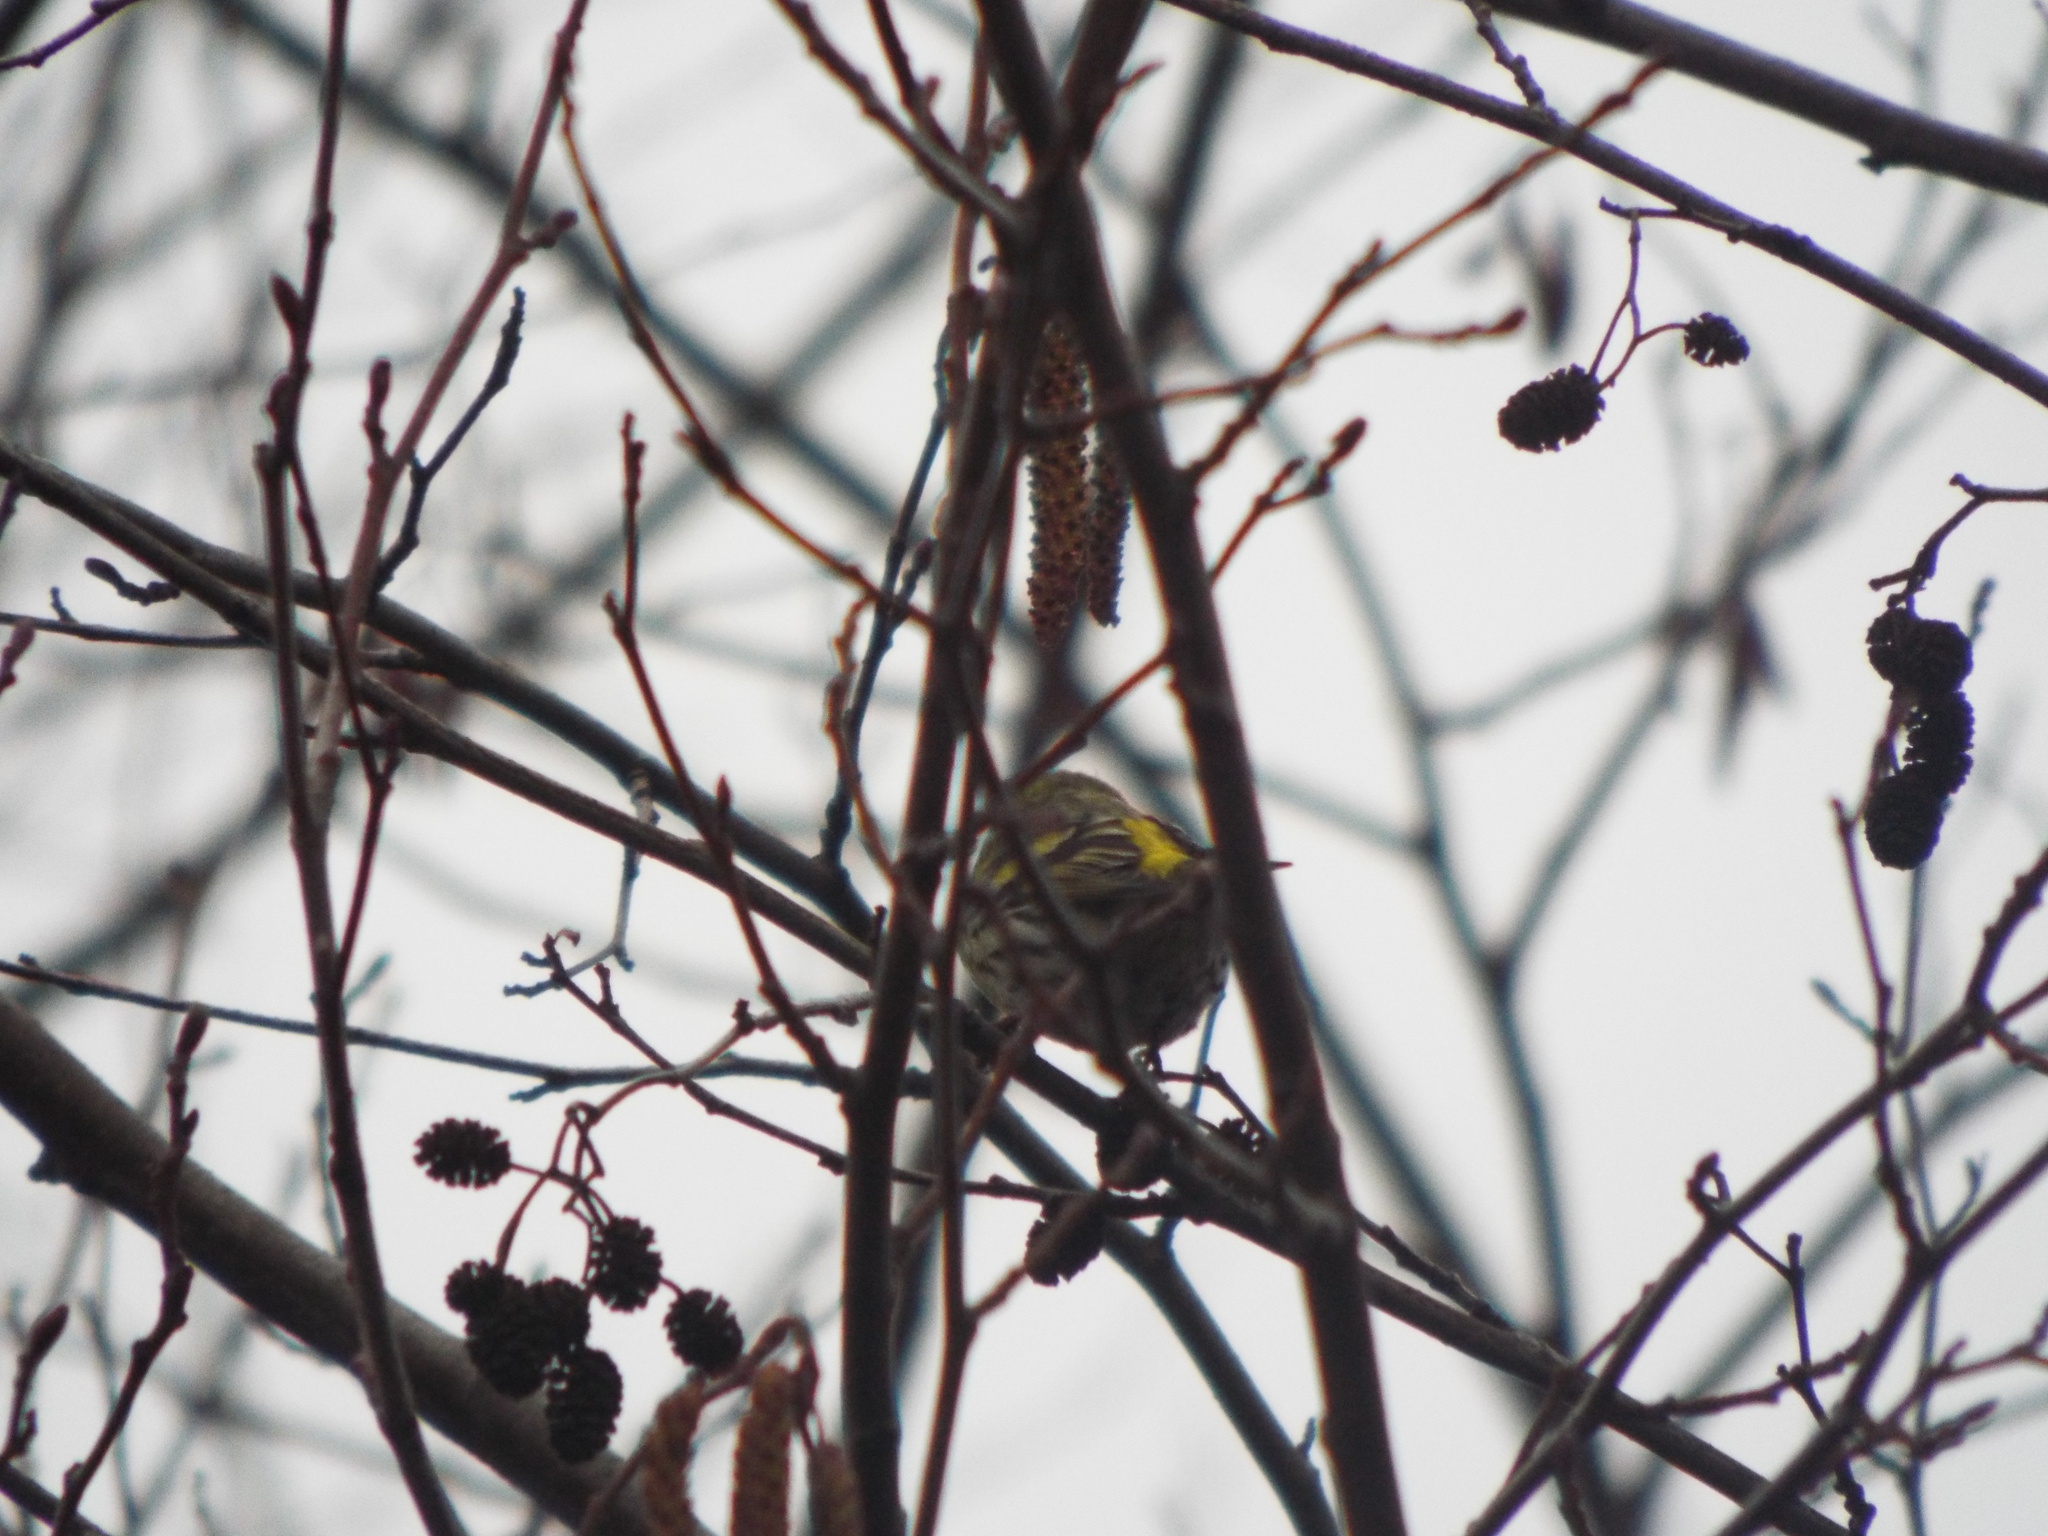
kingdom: Animalia
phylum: Chordata
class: Aves
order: Passeriformes
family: Fringillidae
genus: Spinus
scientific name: Spinus spinus
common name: Eurasian siskin
